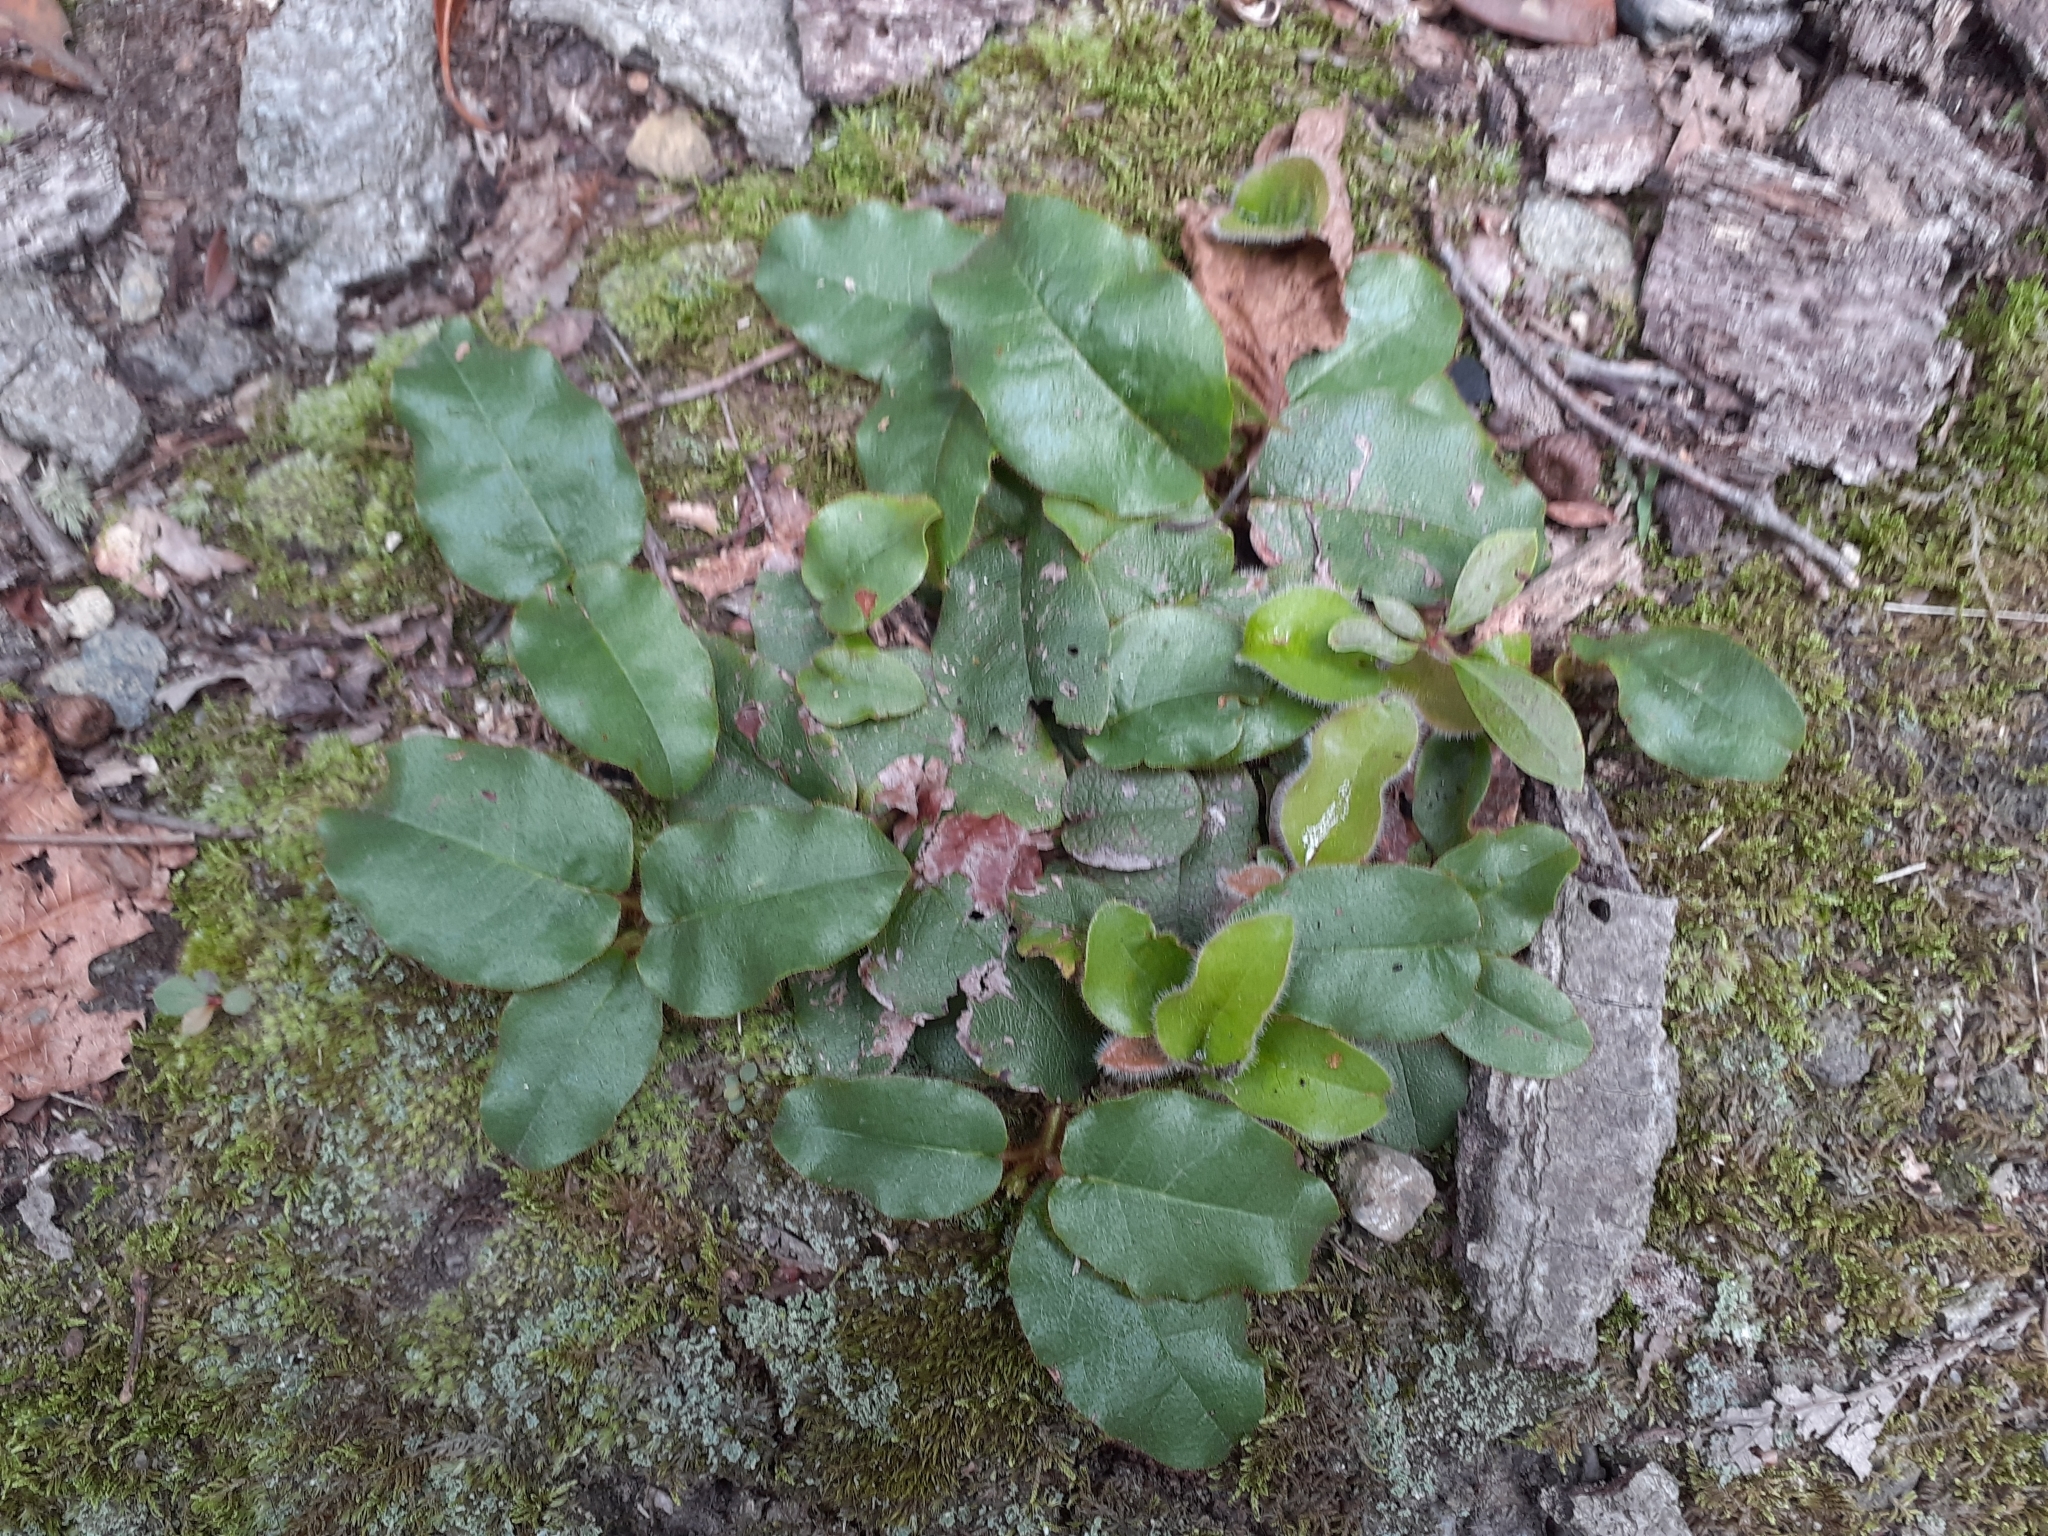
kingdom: Plantae
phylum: Tracheophyta
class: Magnoliopsida
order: Ericales
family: Ericaceae
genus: Epigaea
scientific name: Epigaea repens
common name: Gravelroot
